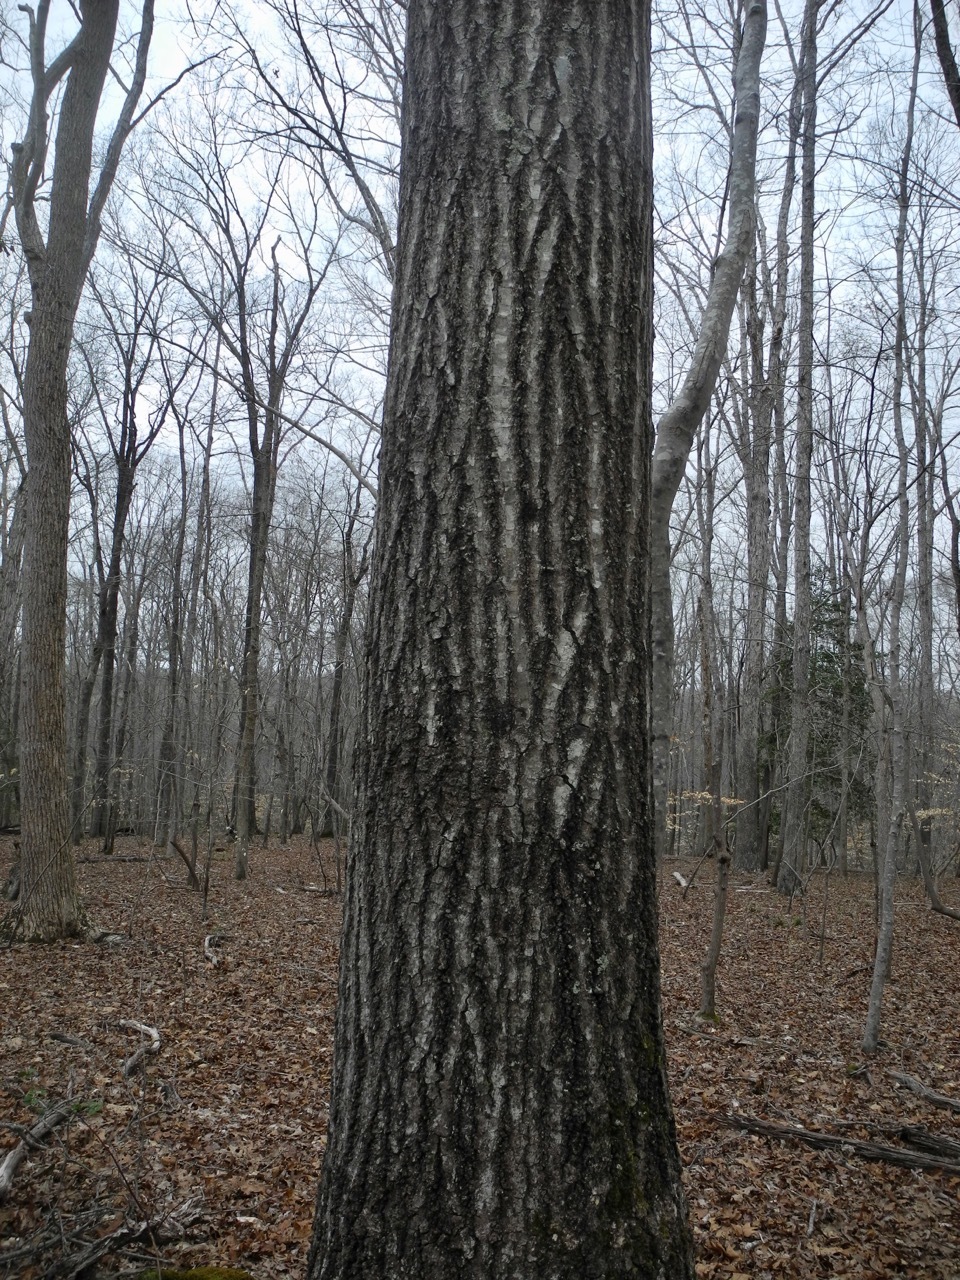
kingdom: Plantae
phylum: Tracheophyta
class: Magnoliopsida
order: Fagales
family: Fagaceae
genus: Quercus
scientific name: Quercus coccinea
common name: Scarlet oak
